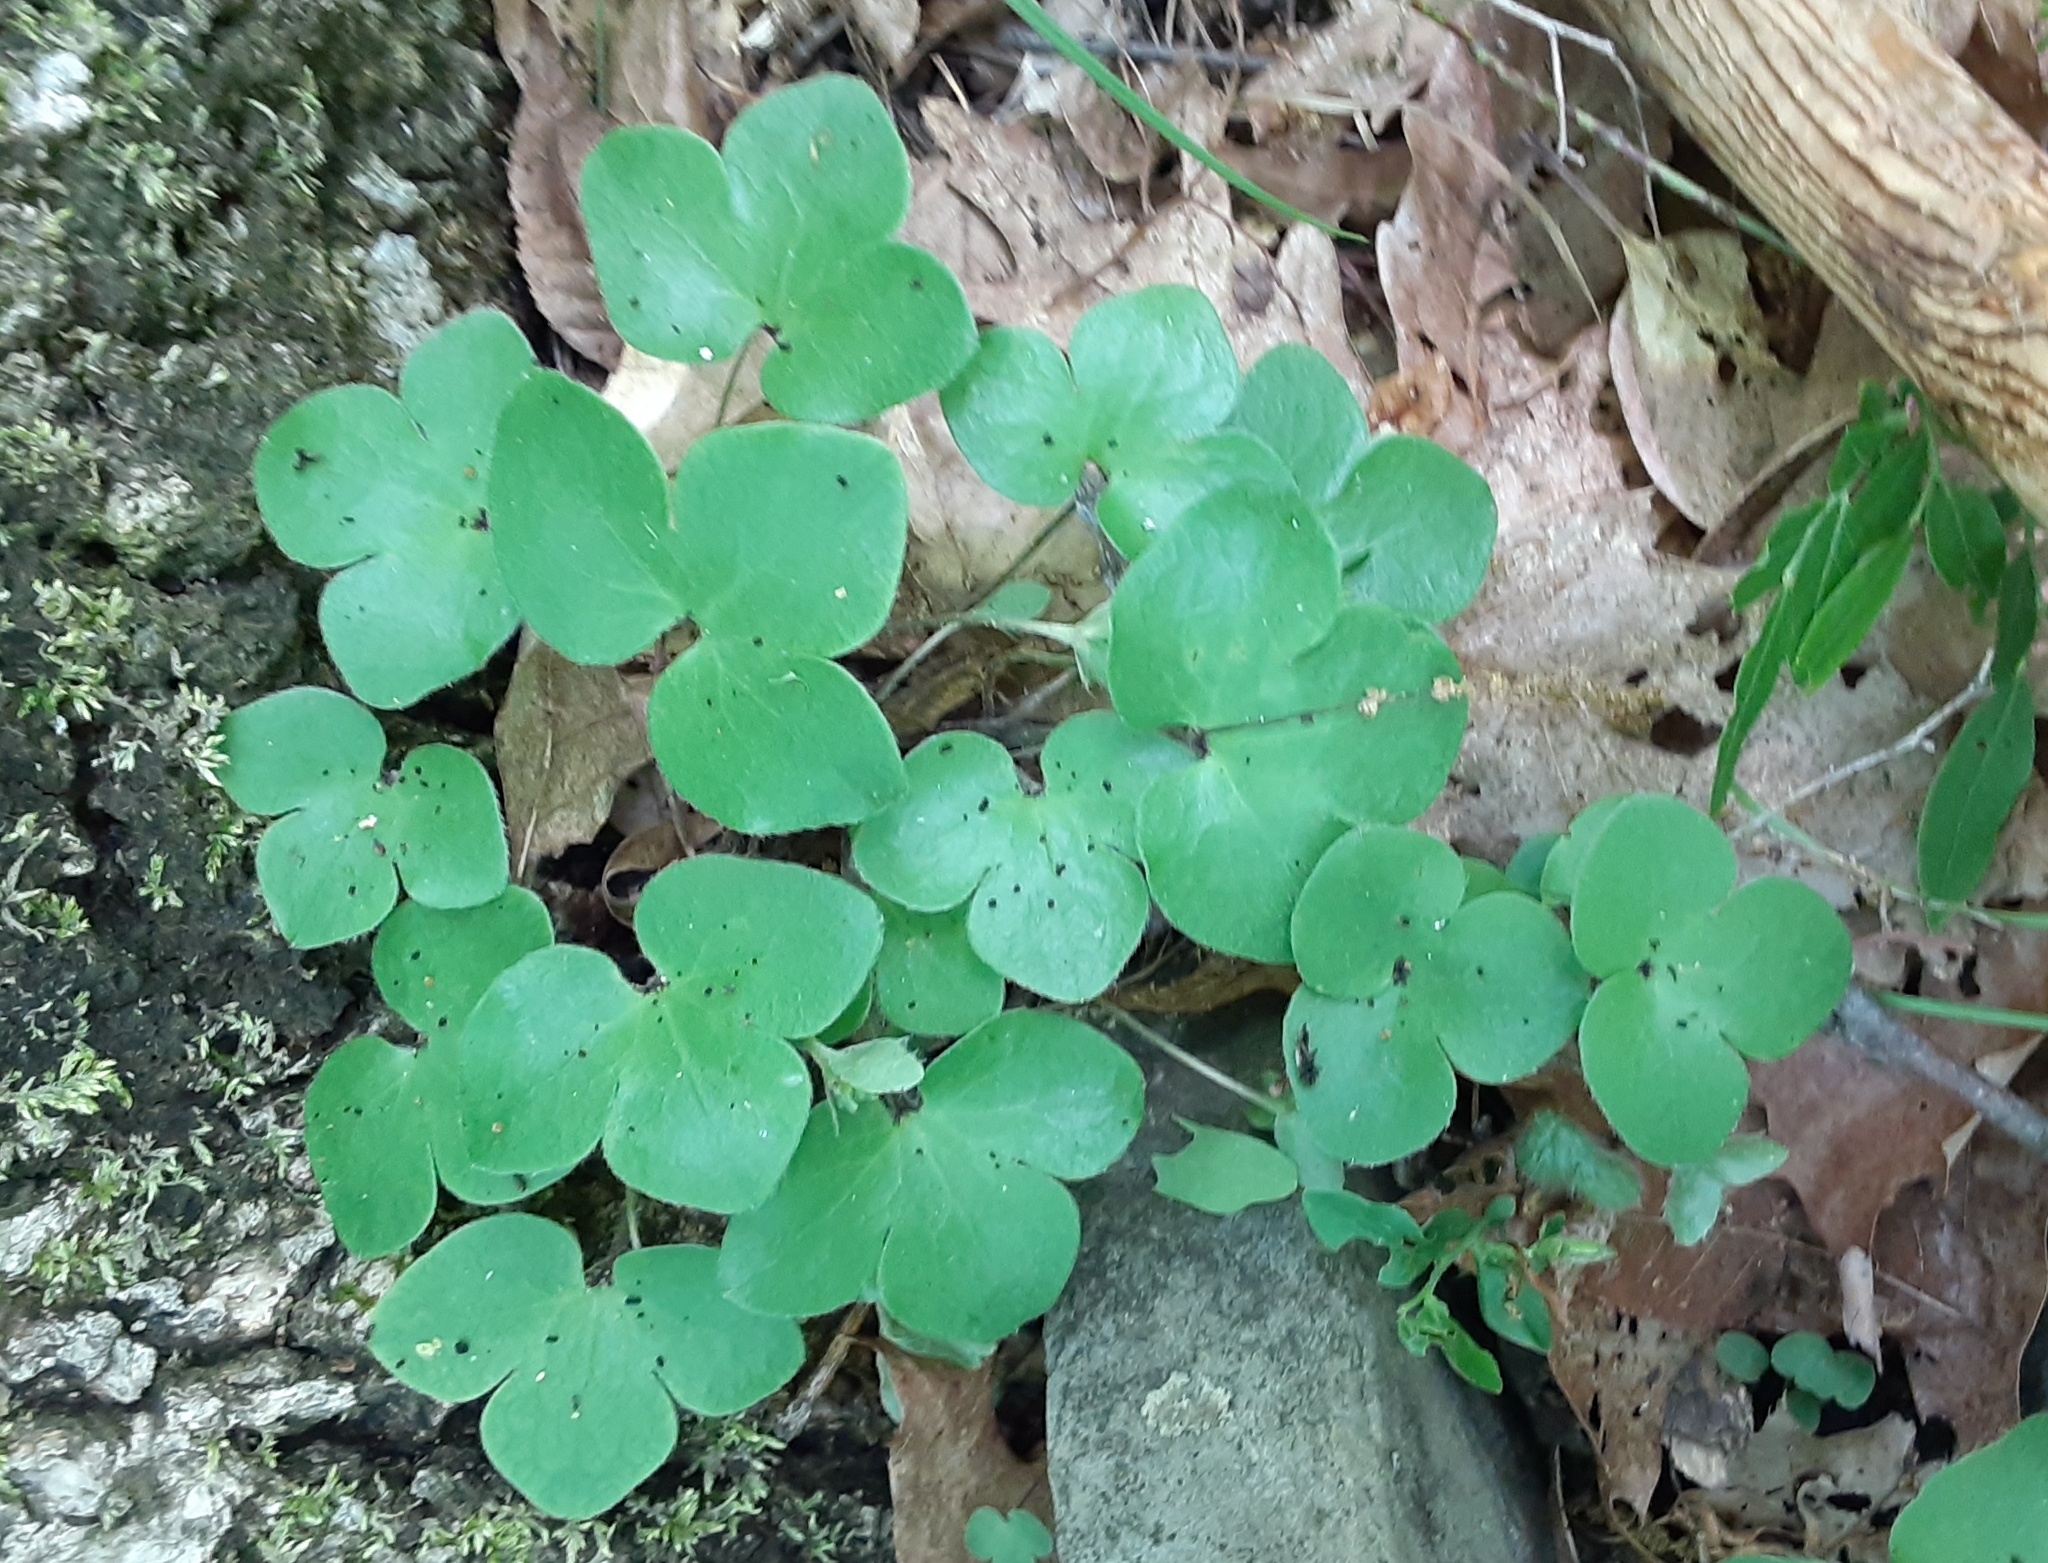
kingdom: Plantae
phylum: Tracheophyta
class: Magnoliopsida
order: Ranunculales
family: Ranunculaceae
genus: Hepatica
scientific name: Hepatica americana
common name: American hepatica
